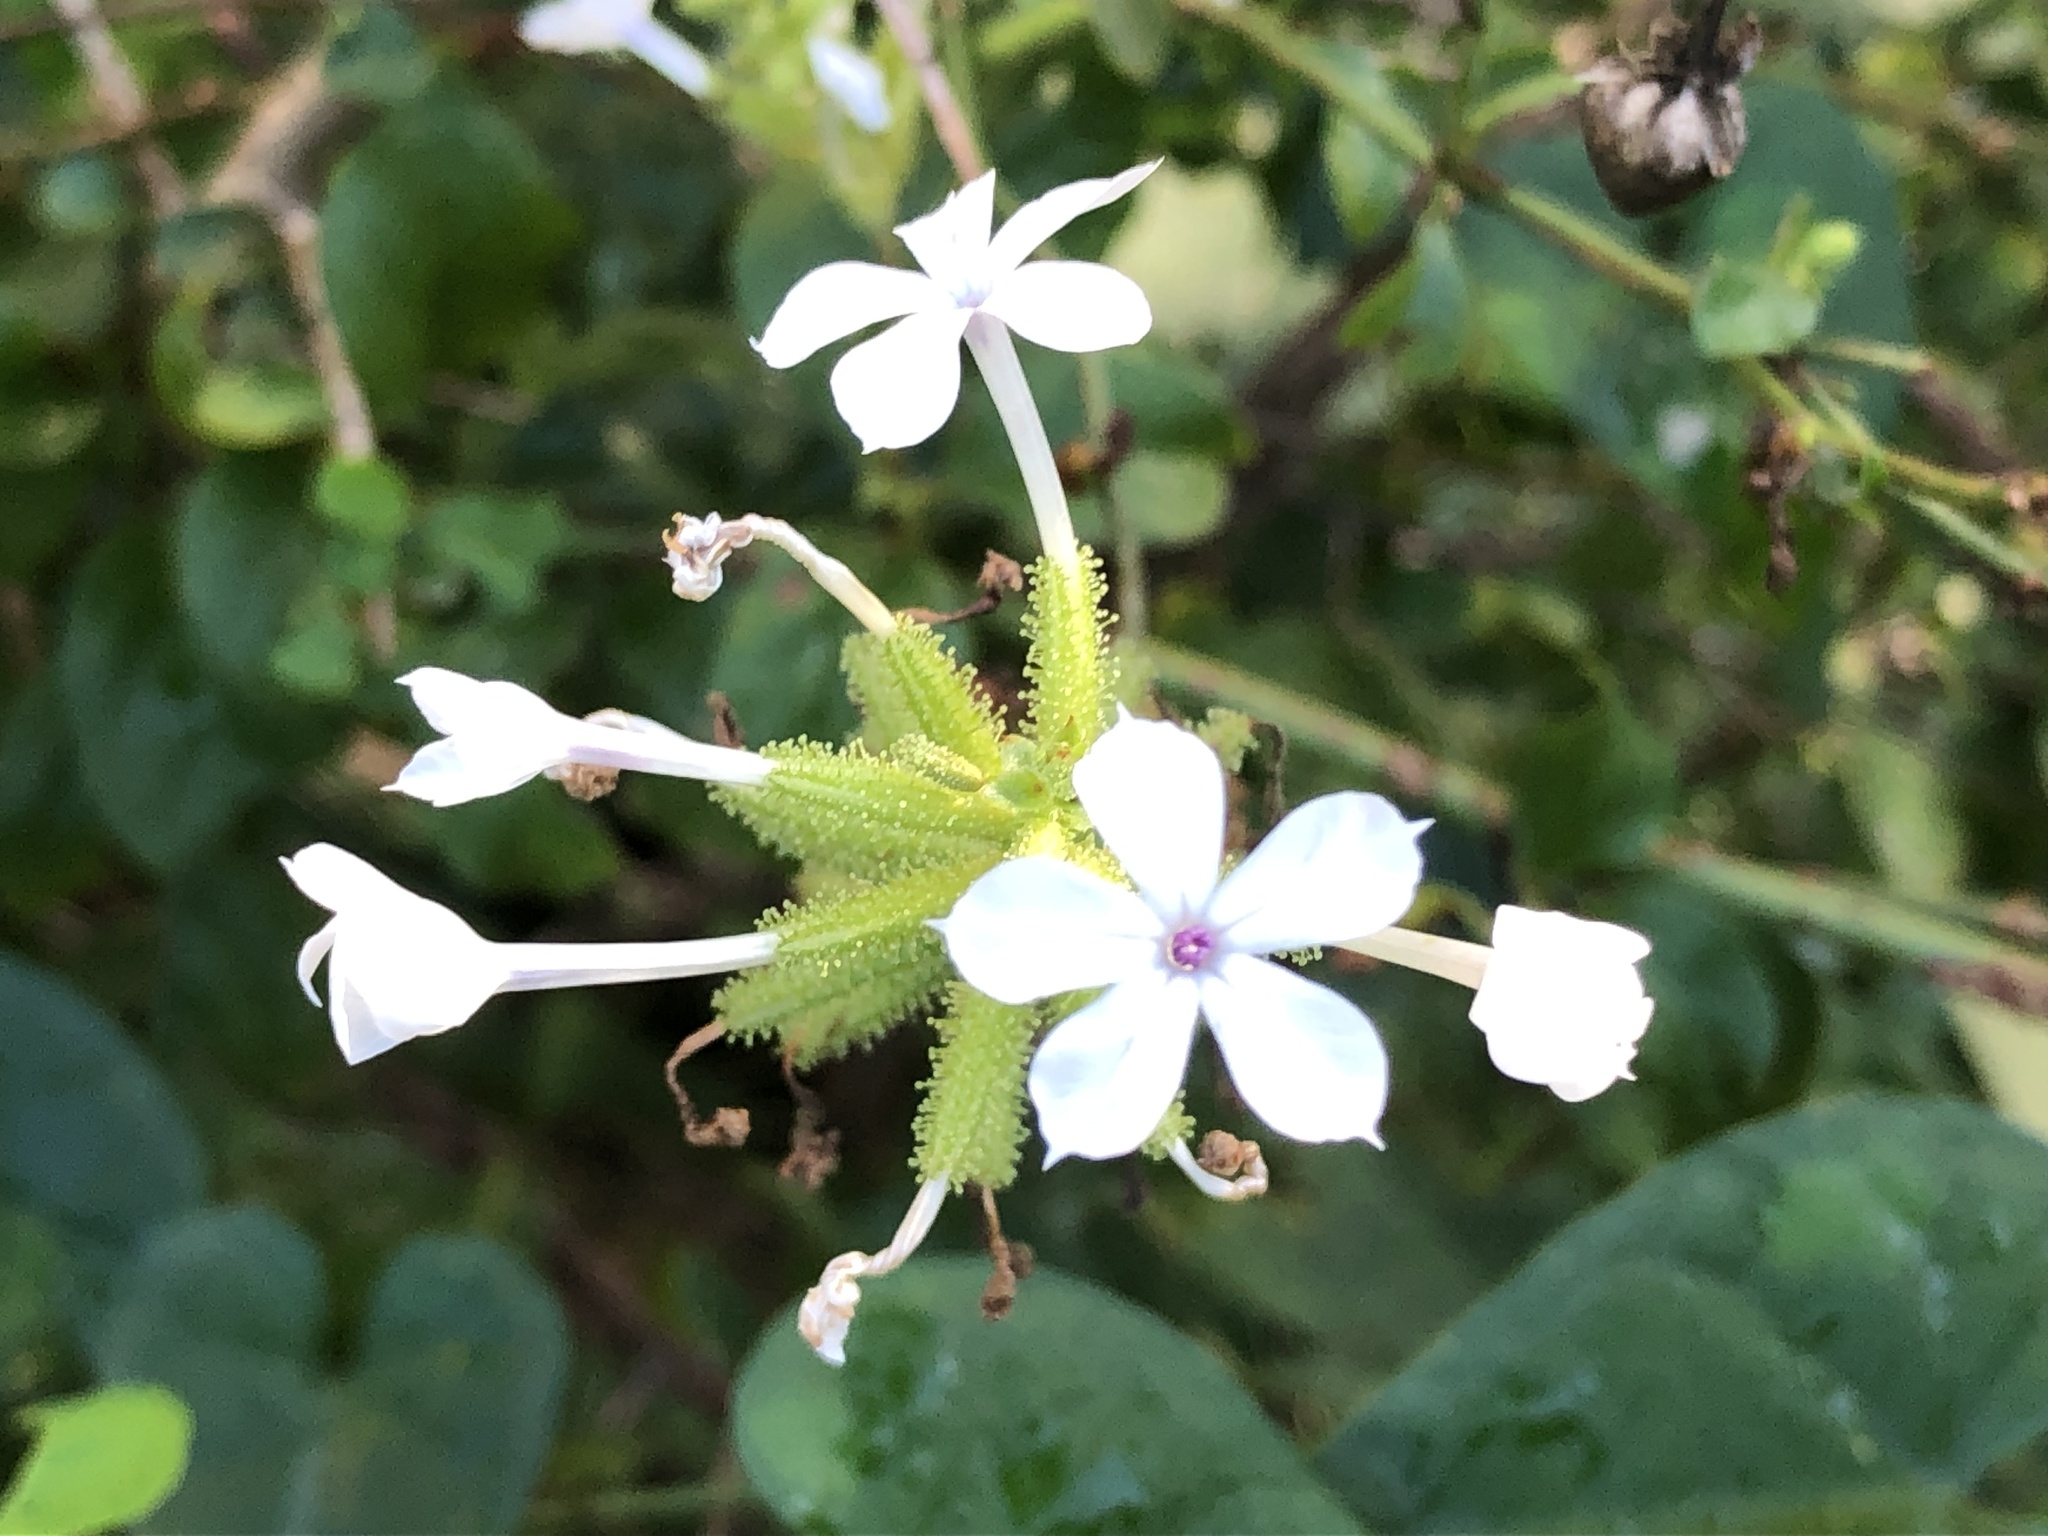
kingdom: Plantae
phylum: Tracheophyta
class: Magnoliopsida
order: Caryophyllales
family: Plumbaginaceae
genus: Plumbago
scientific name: Plumbago zeylanica
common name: Doctorbush
